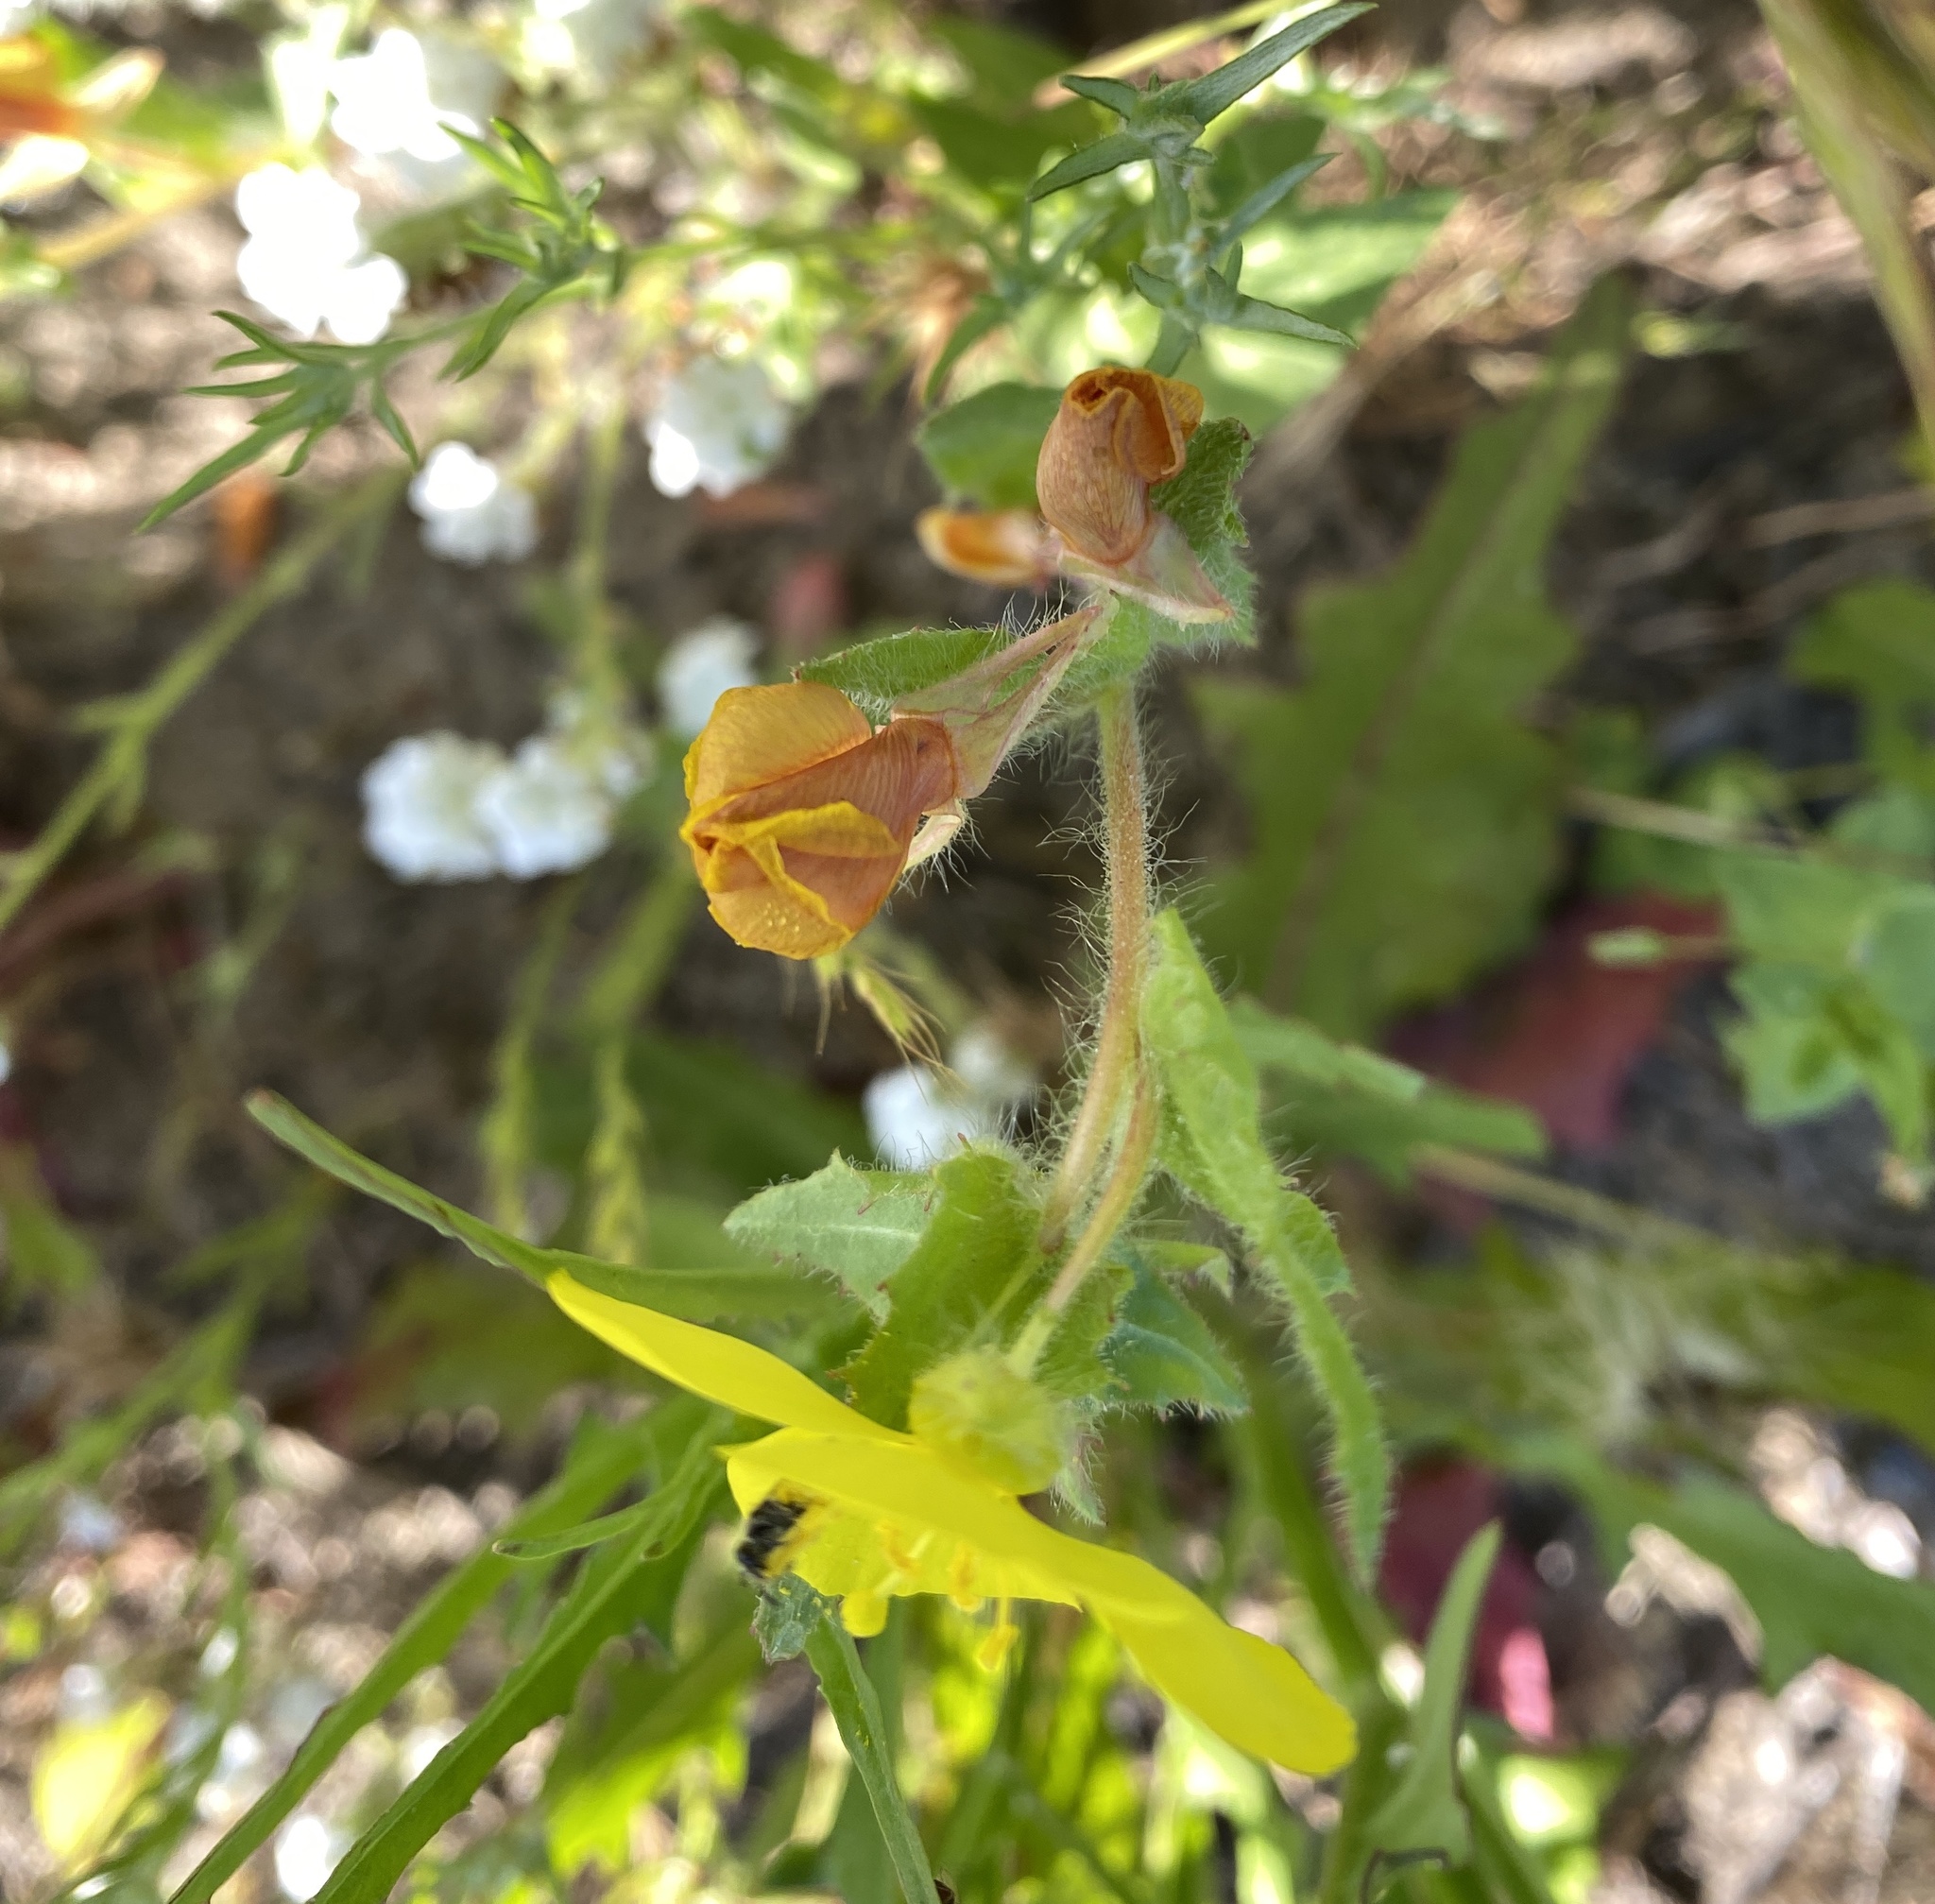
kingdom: Plantae
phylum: Tracheophyta
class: Magnoliopsida
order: Myrtales
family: Onagraceae
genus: Camissoniopsis
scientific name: Camissoniopsis bistorta
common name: Southern suncup
